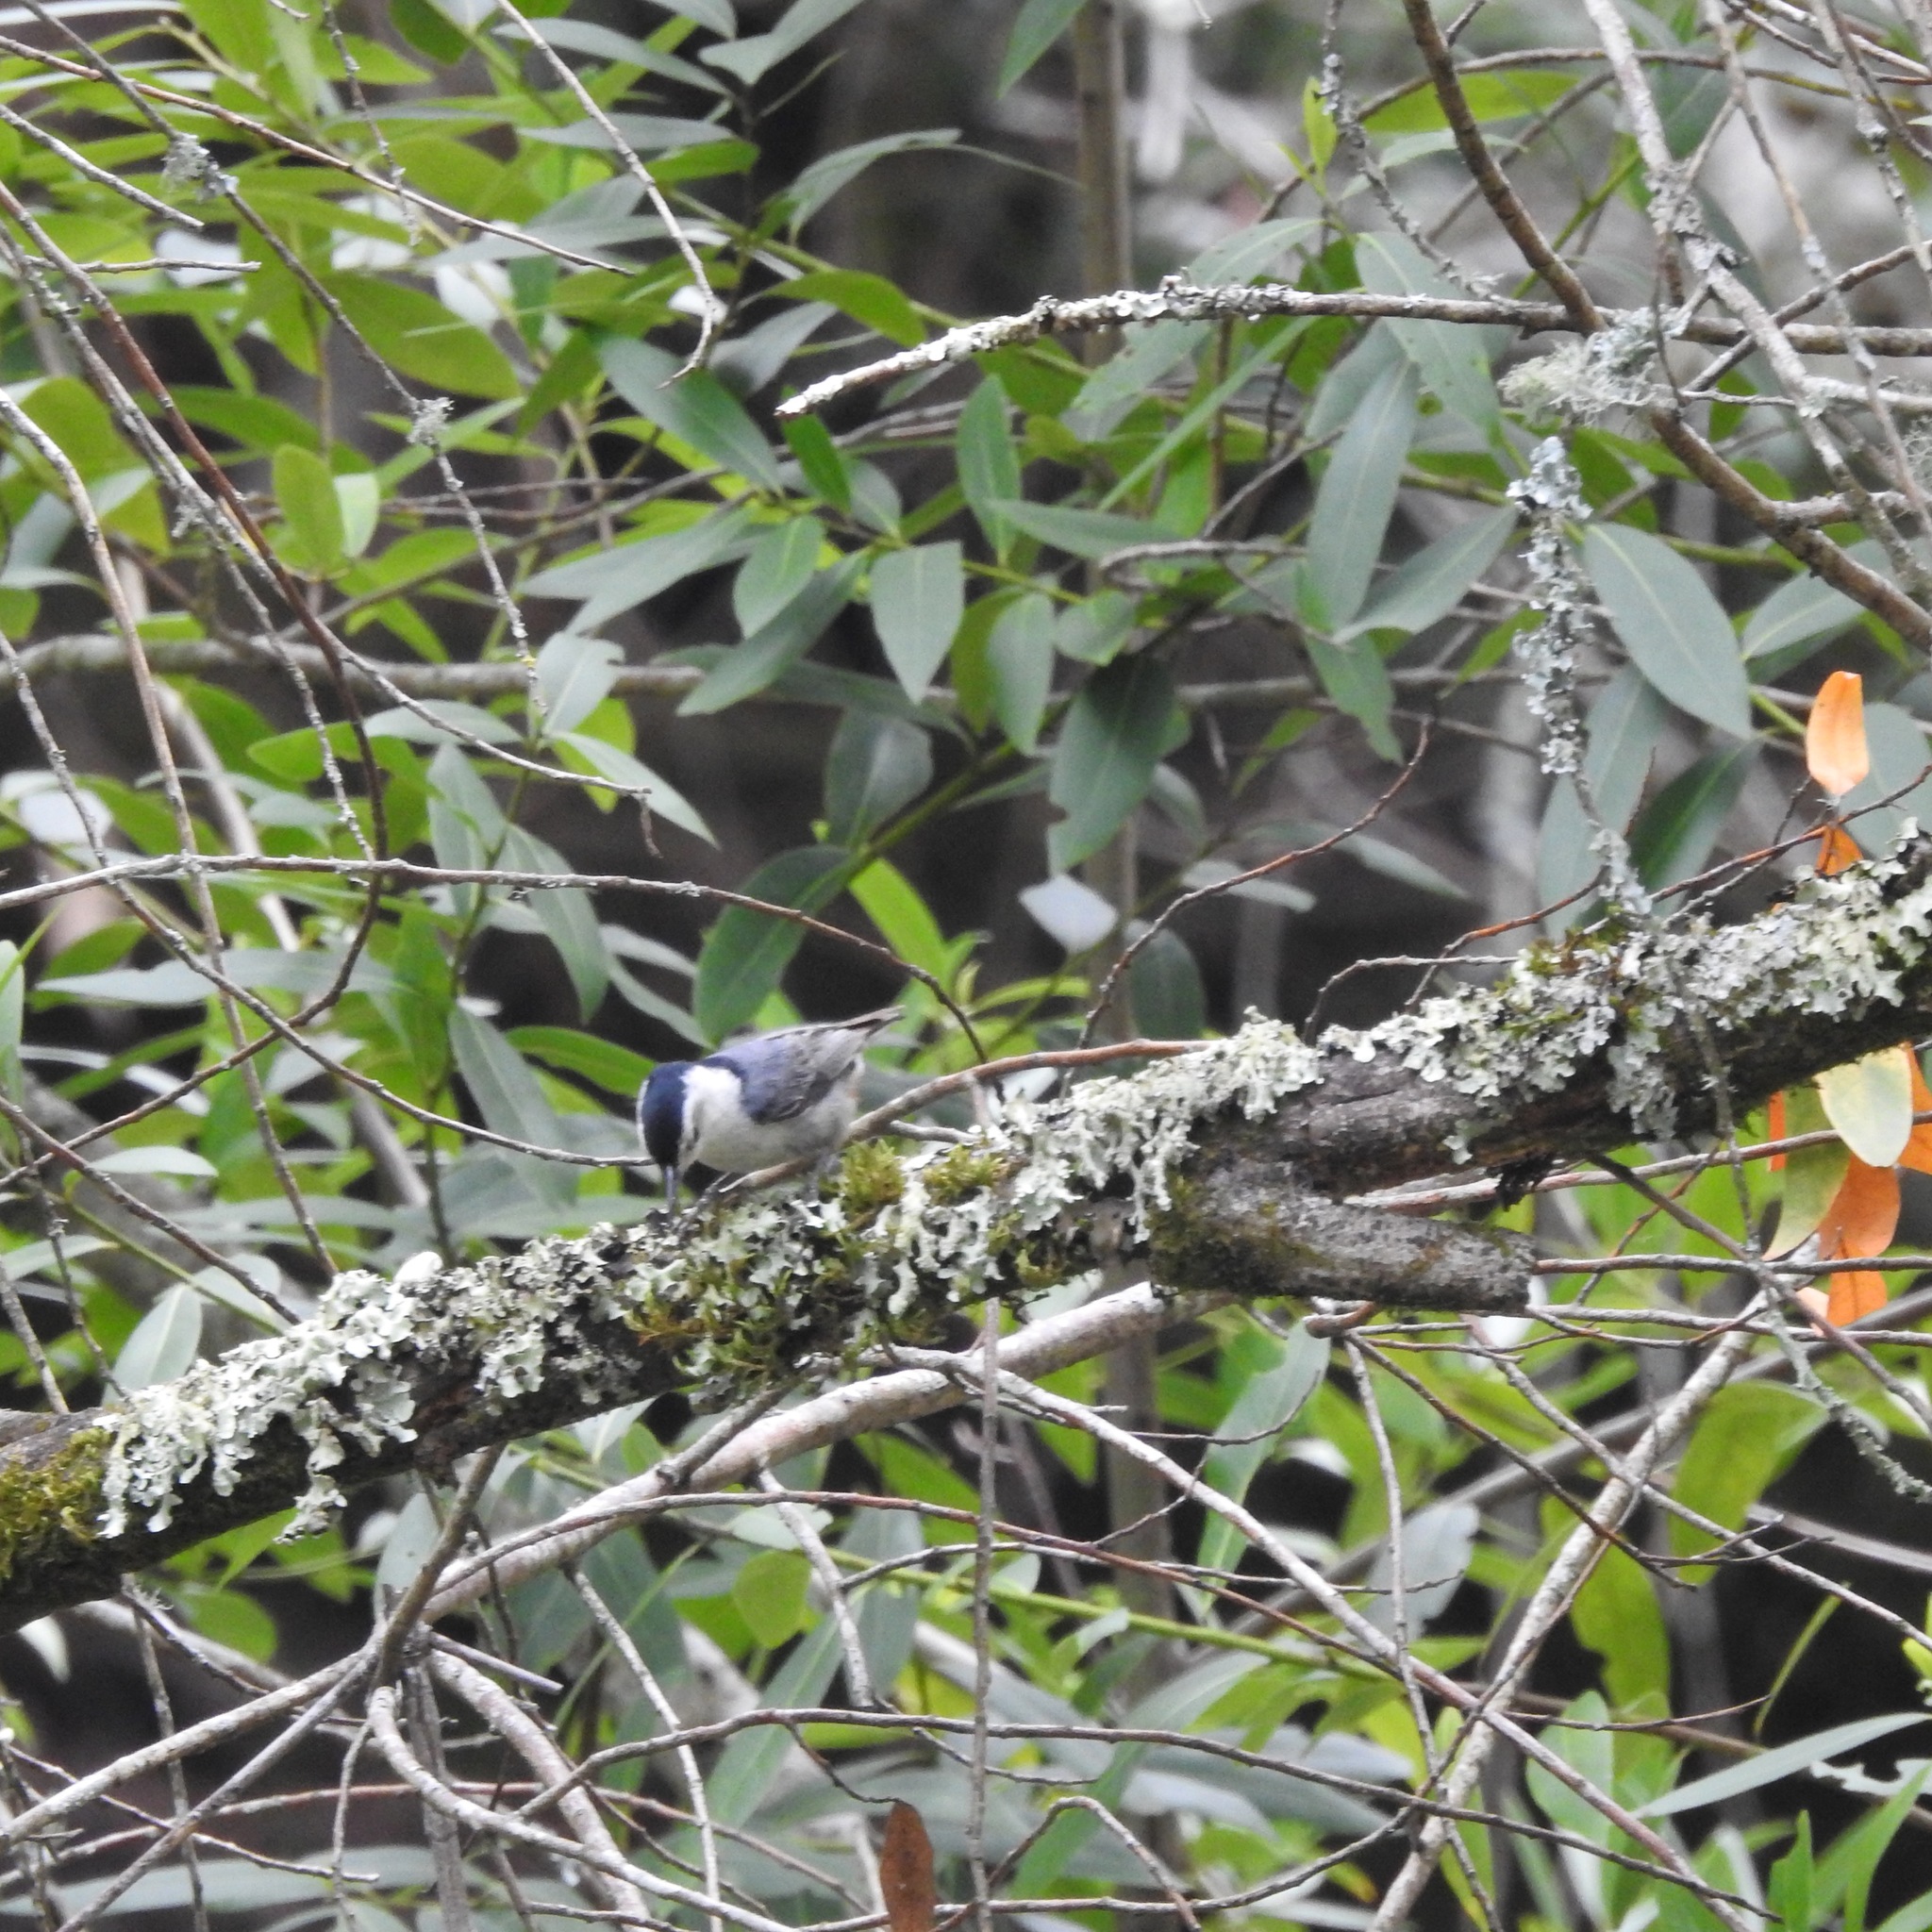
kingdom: Plantae
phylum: Tracheophyta
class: Magnoliopsida
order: Laurales
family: Lauraceae
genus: Umbellularia
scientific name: Umbellularia californica
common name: California bay
